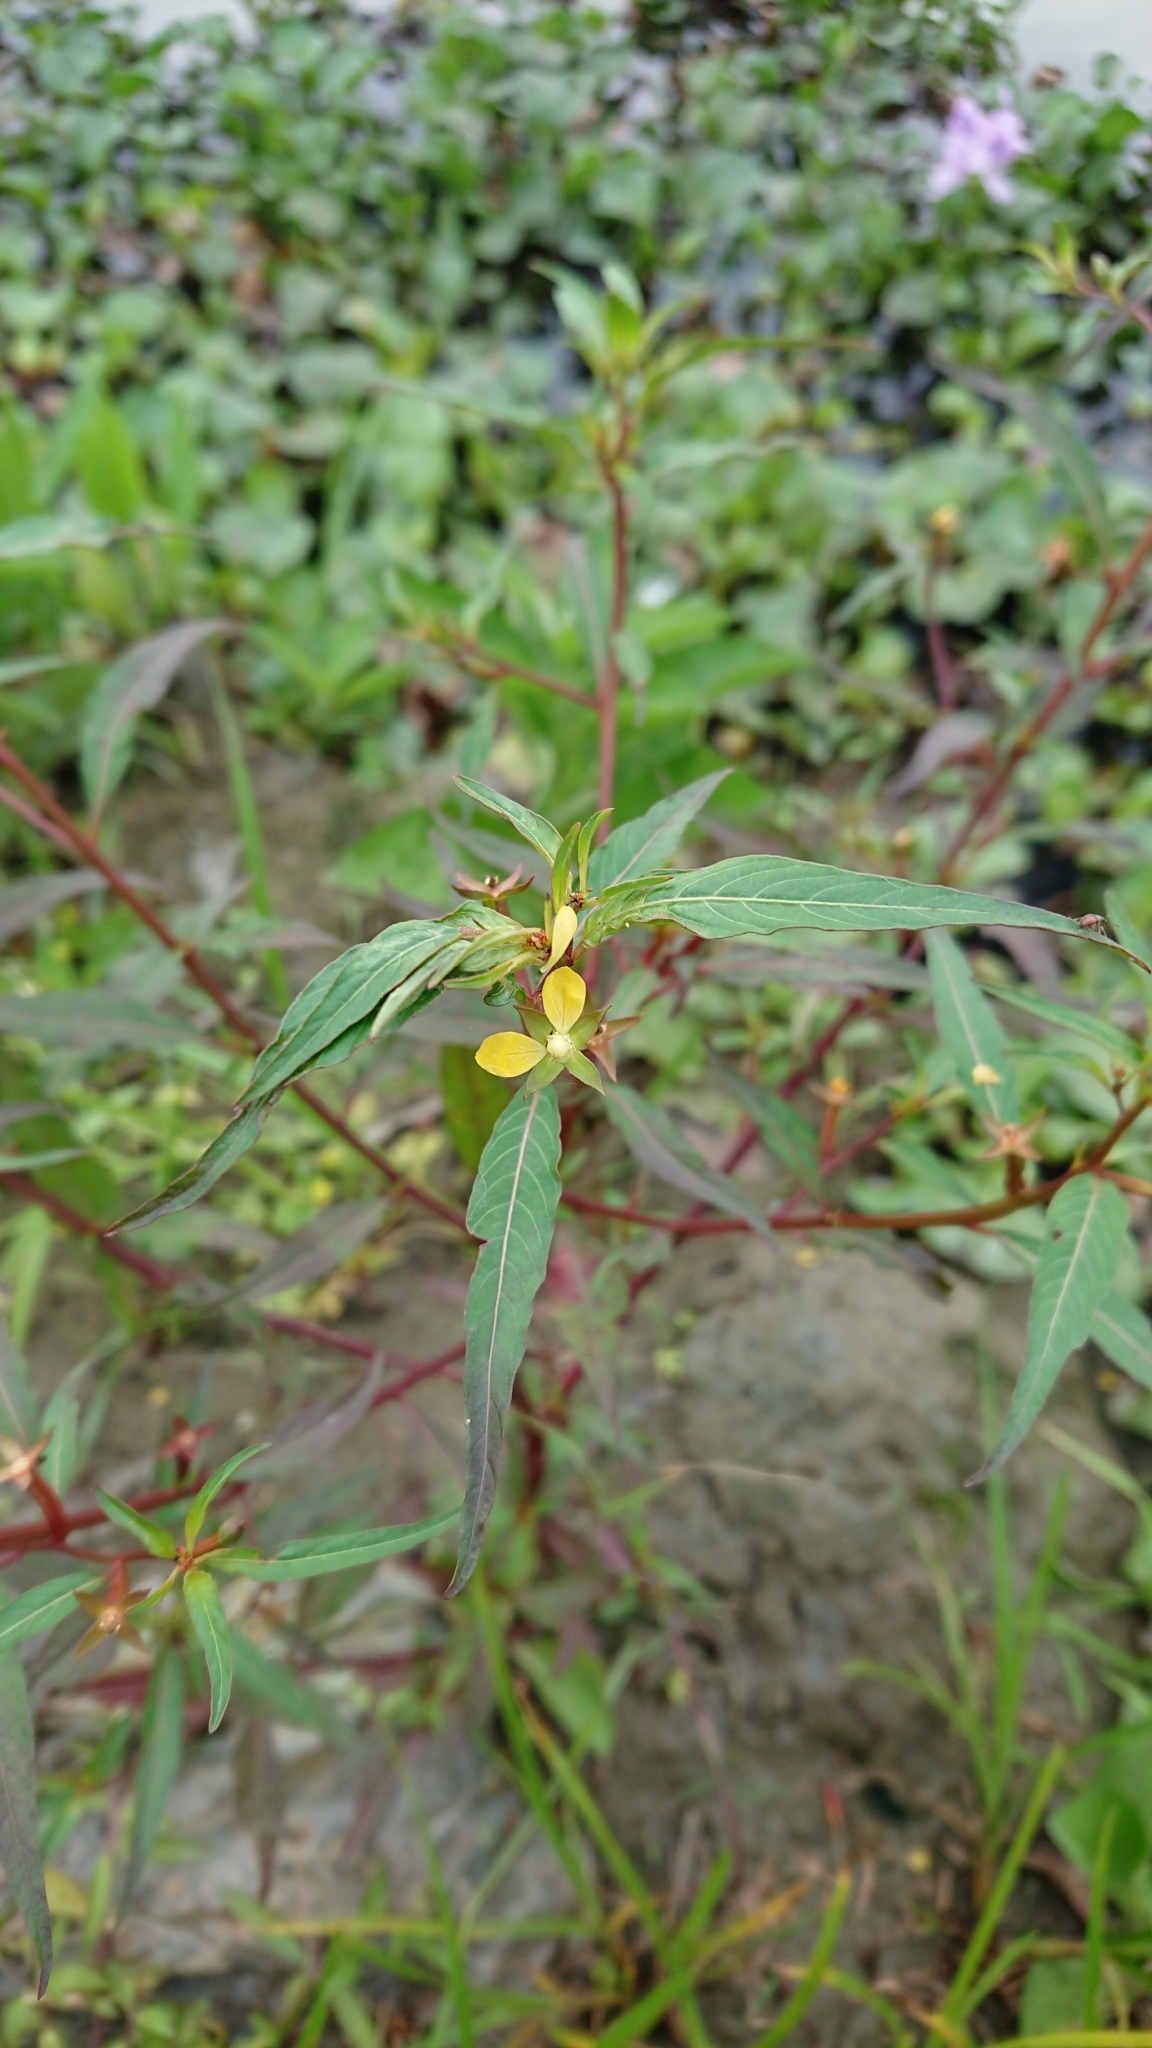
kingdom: Plantae
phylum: Tracheophyta
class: Magnoliopsida
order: Myrtales
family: Onagraceae
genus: Ludwigia
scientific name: Ludwigia hyssopifolia
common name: Linear leaf water primrose
